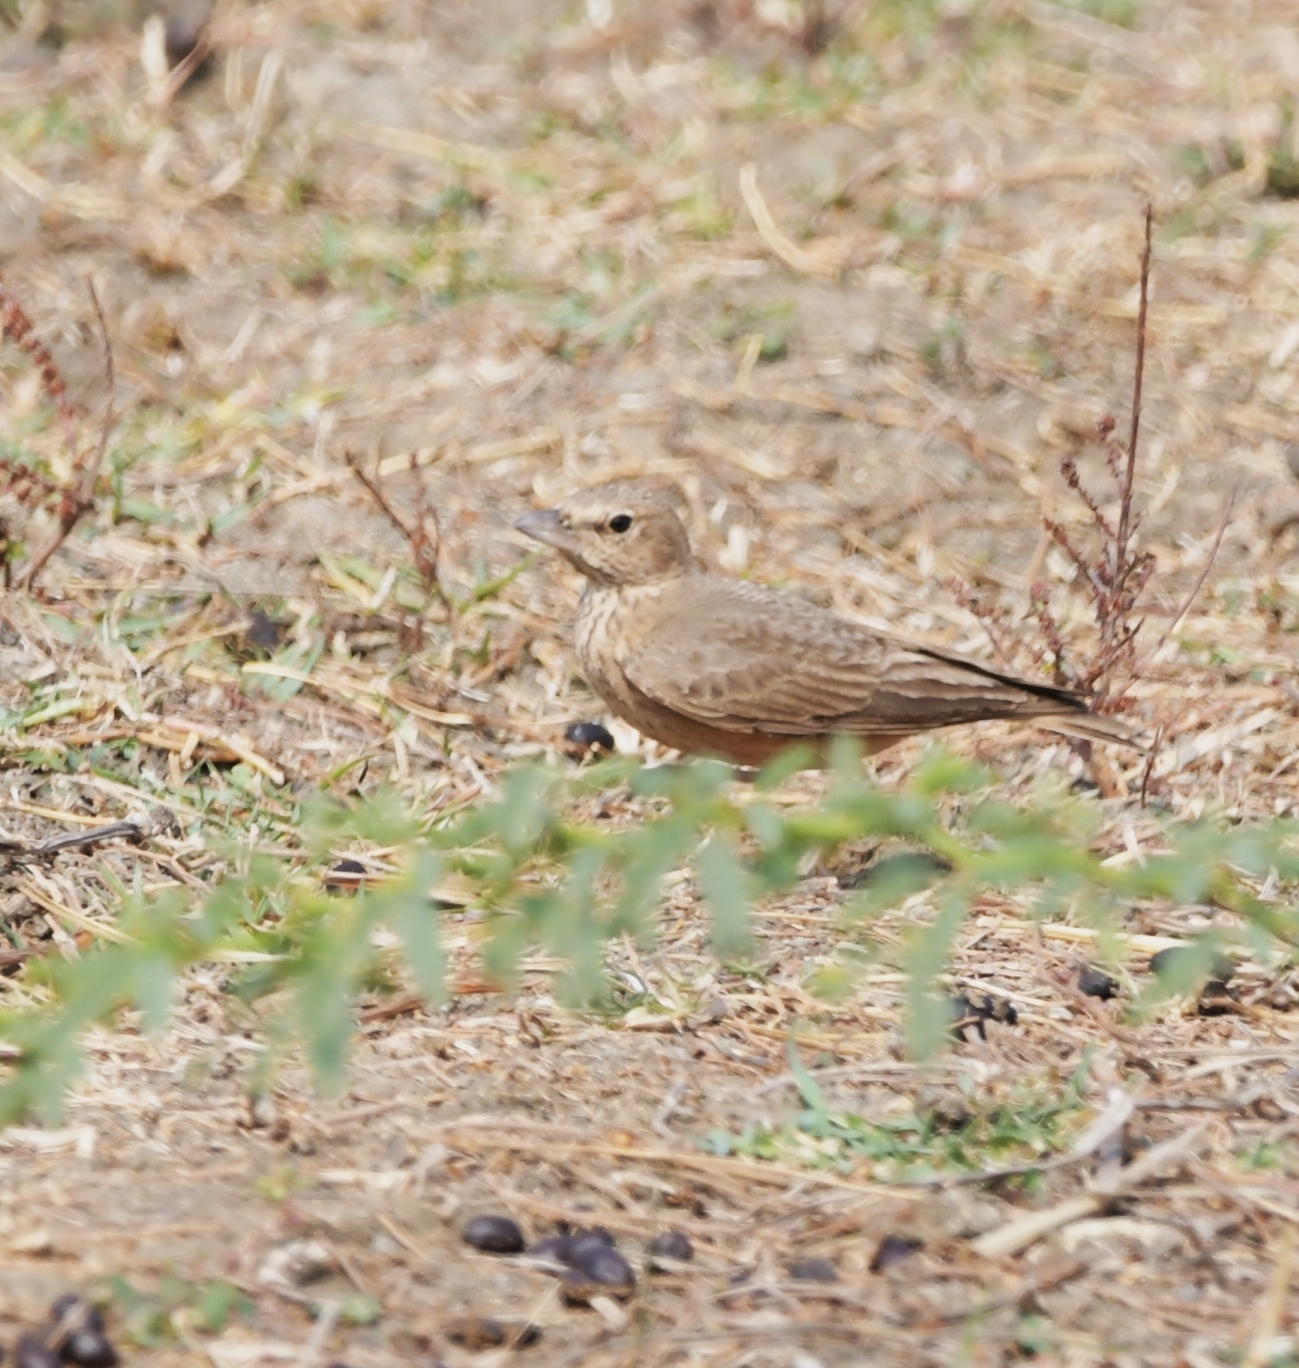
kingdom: Animalia
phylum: Chordata
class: Aves
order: Passeriformes
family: Alaudidae
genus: Ammomanes
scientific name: Ammomanes phoenicura
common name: Rufous-tailed lark
